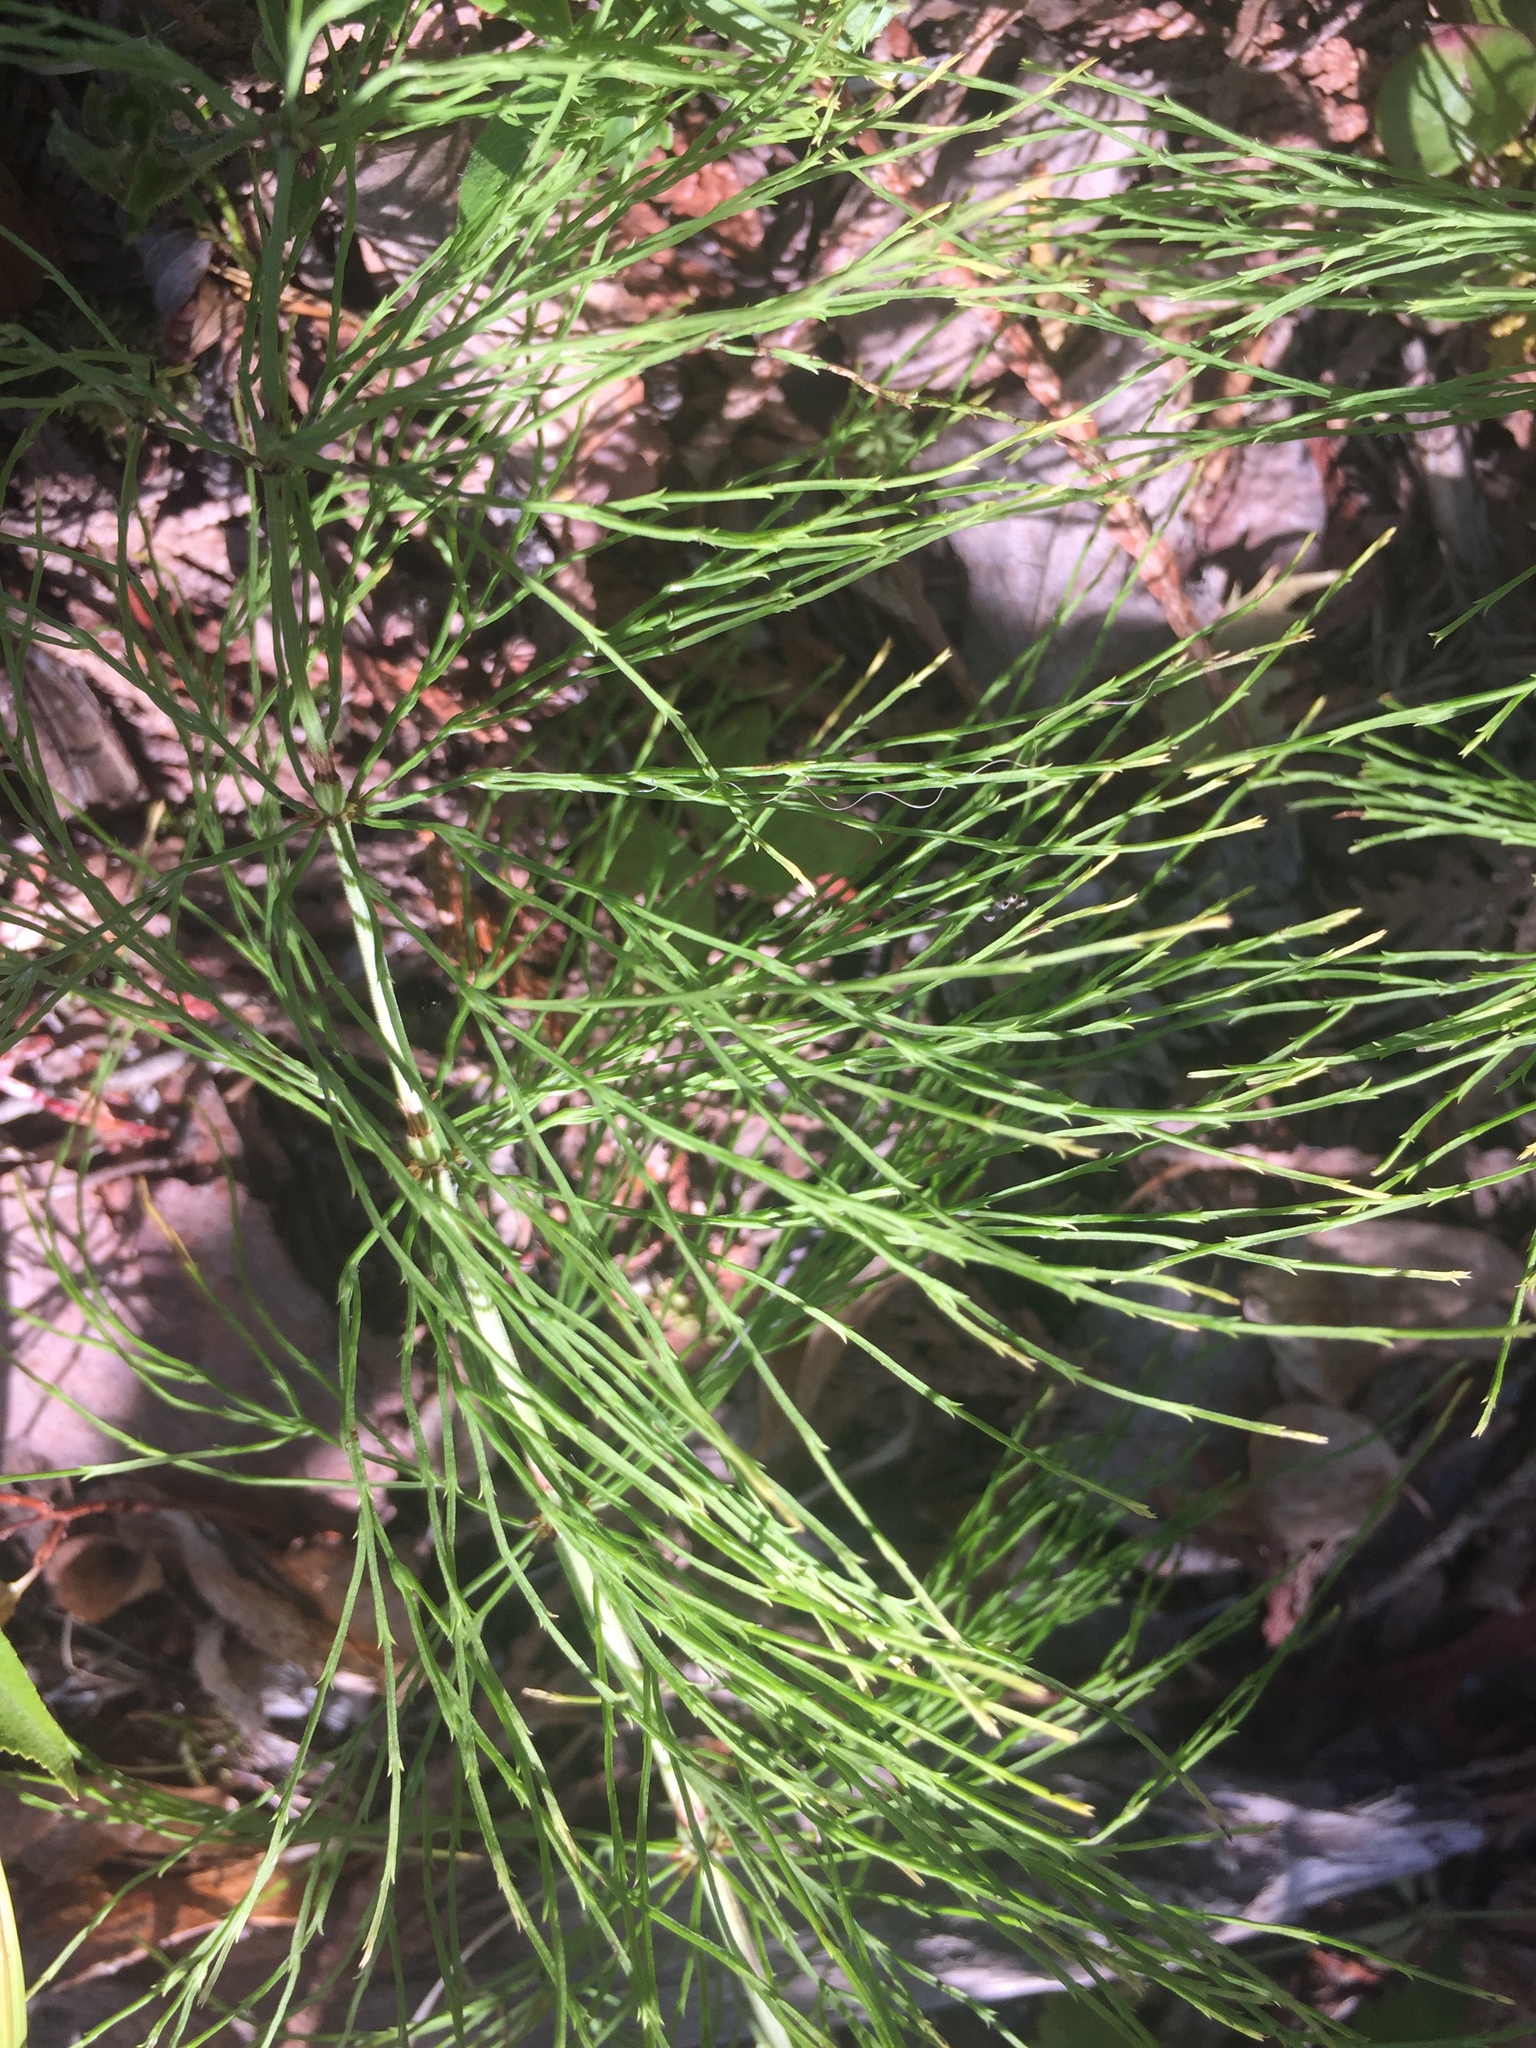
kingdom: Plantae
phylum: Tracheophyta
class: Polypodiopsida
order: Equisetales
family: Equisetaceae
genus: Equisetum
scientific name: Equisetum sylvaticum
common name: Wood horsetail
